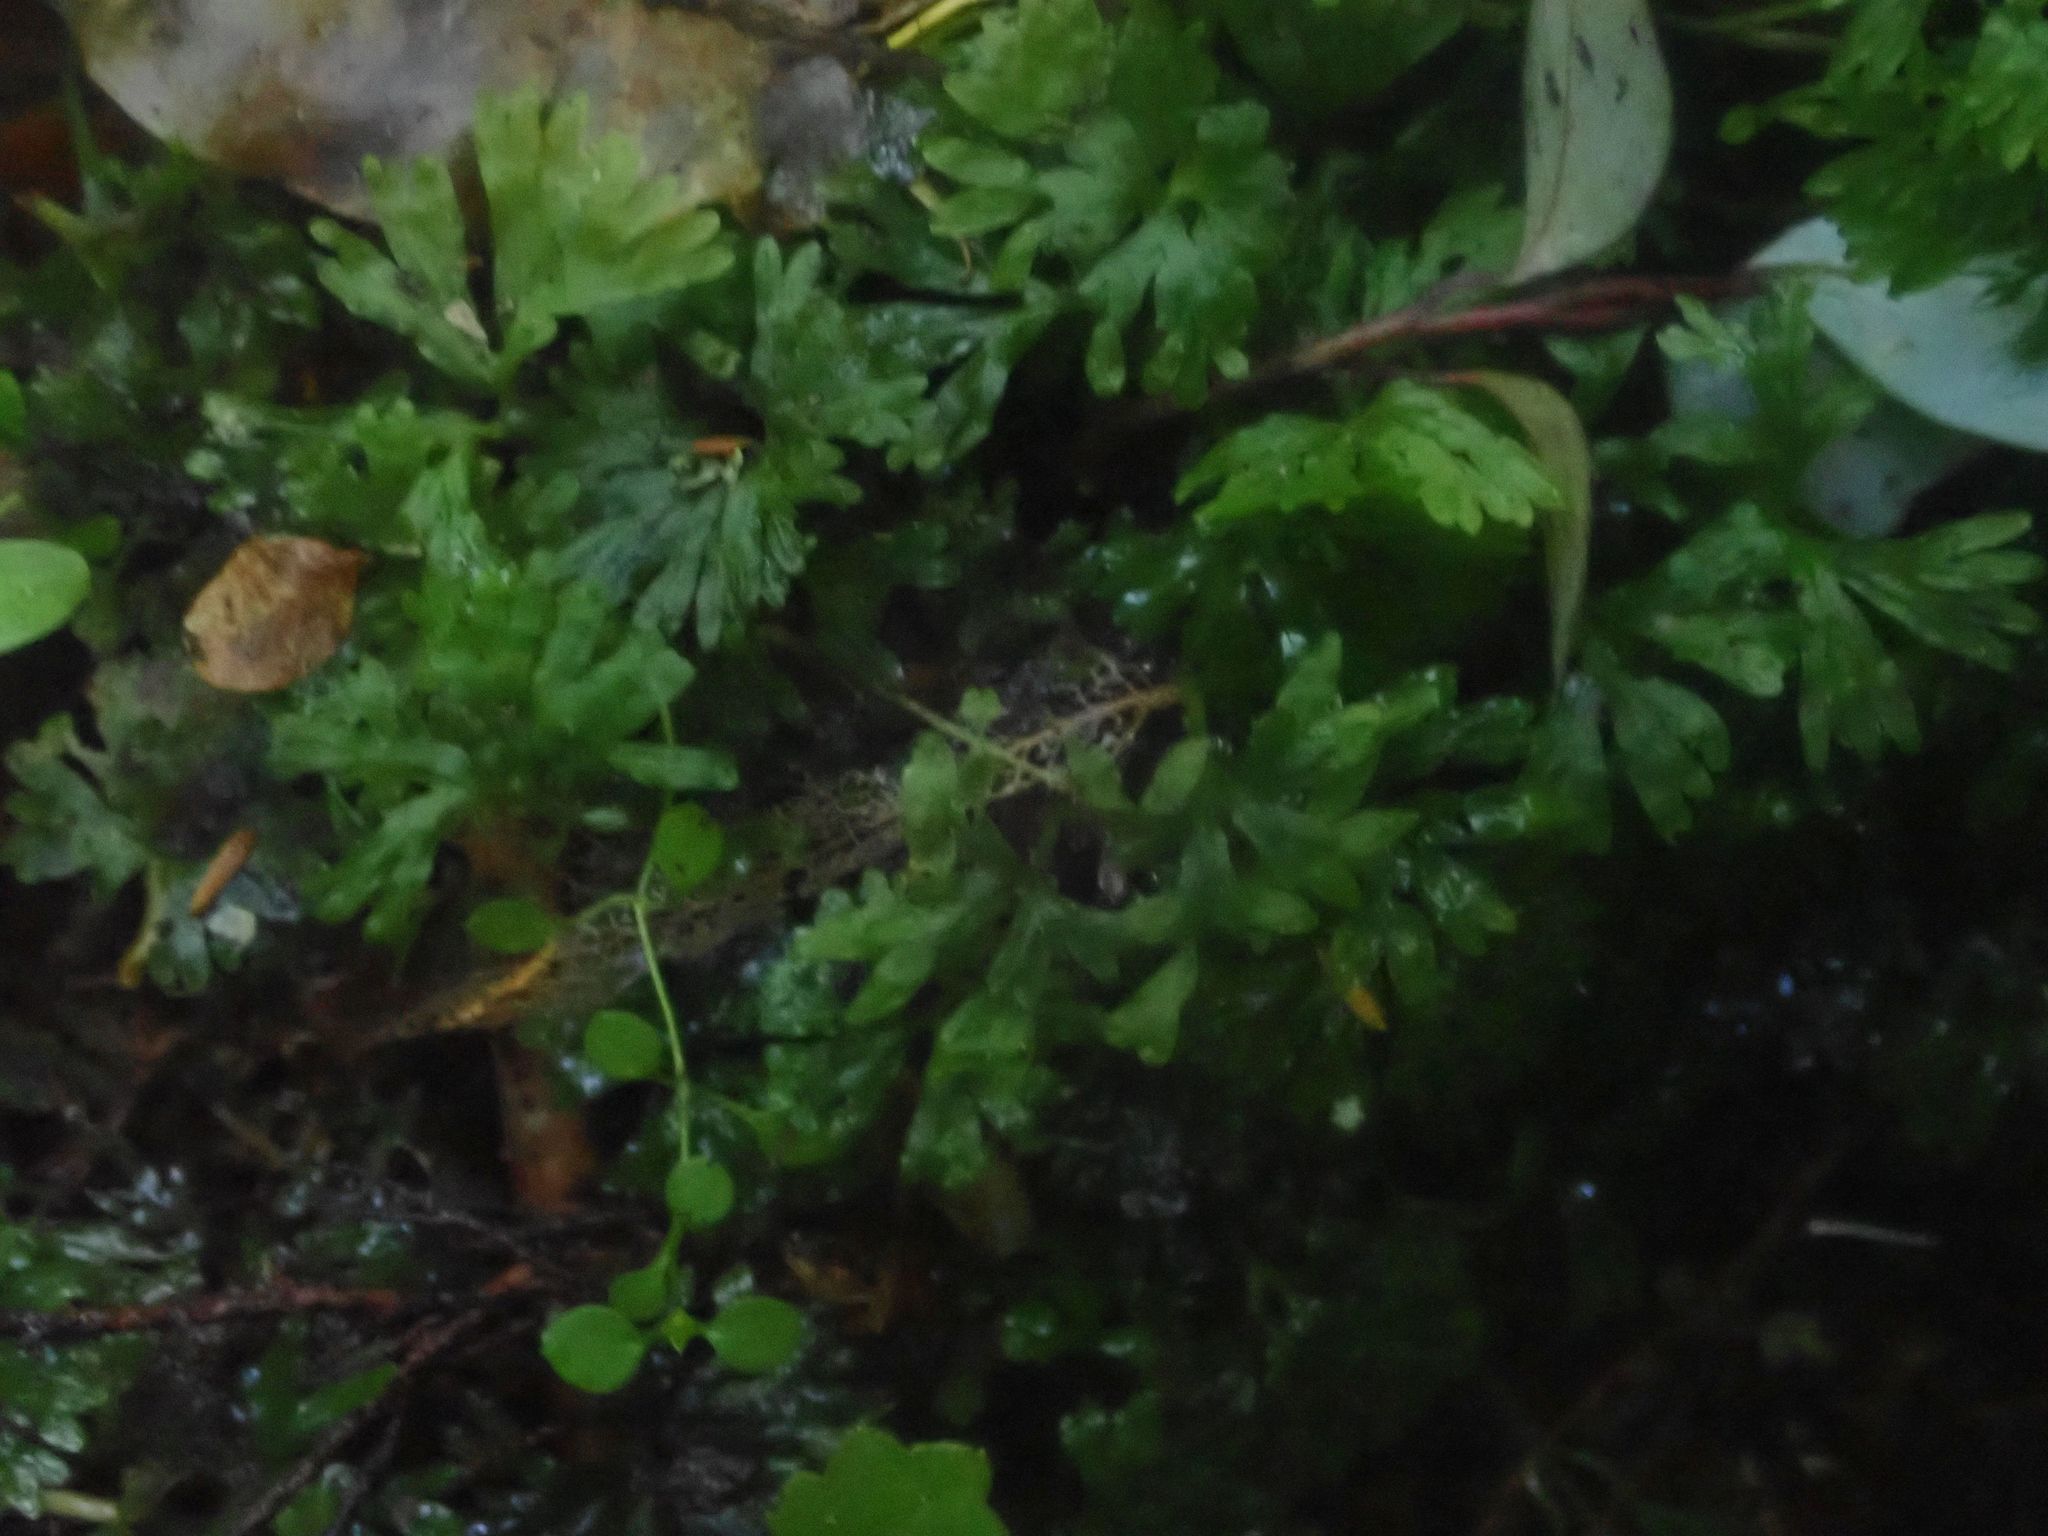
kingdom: Plantae
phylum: Marchantiophyta
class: Jungermanniopsida
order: Pallaviciniales
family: Pallaviciniaceae
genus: Symphyogyna
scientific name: Symphyogyna hymenophyllum
